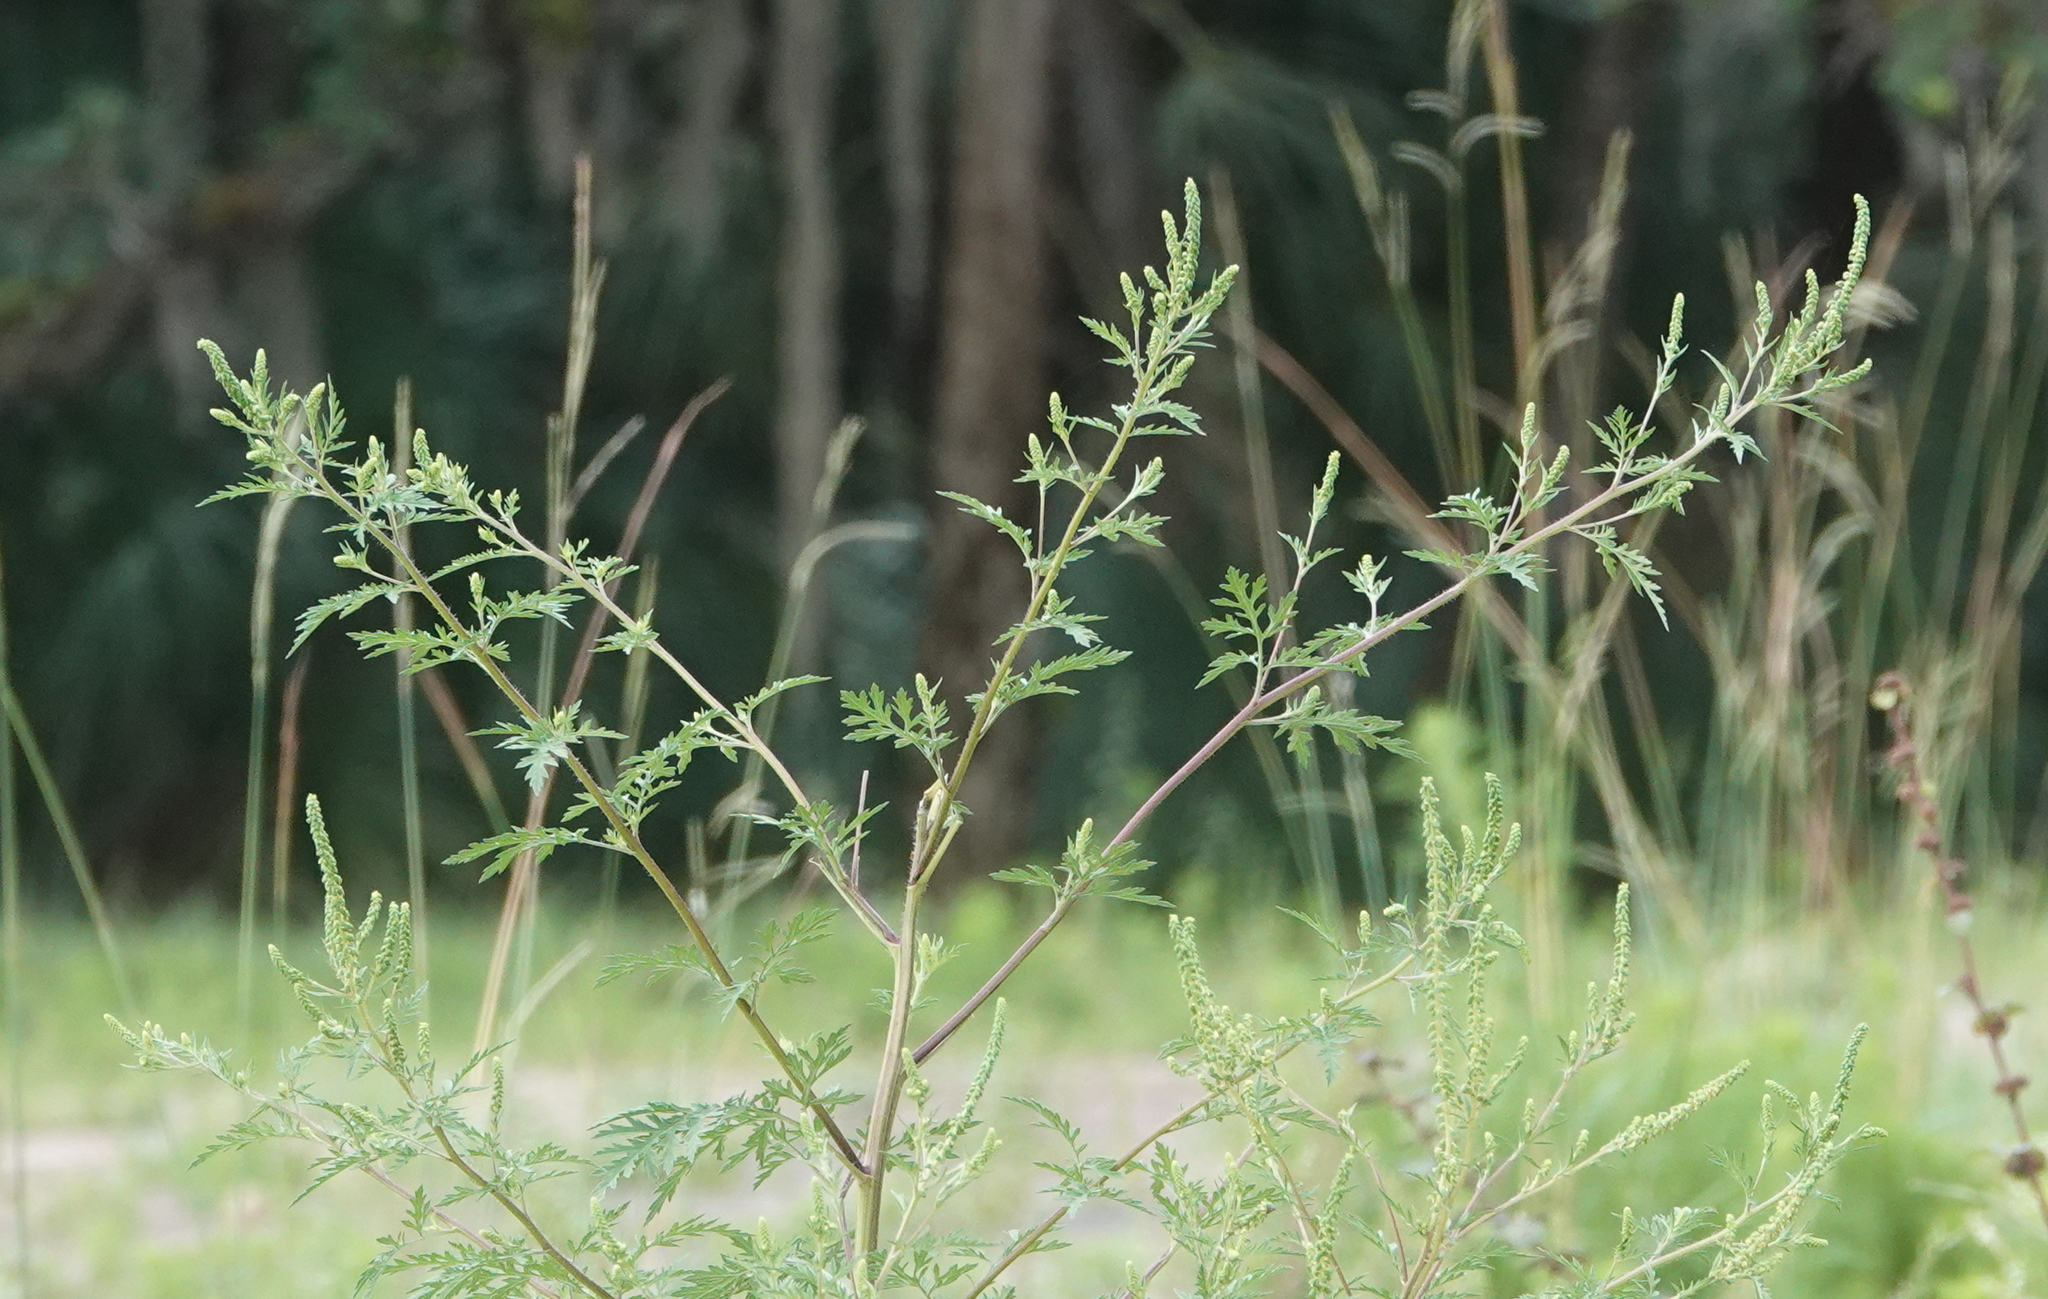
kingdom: Plantae
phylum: Tracheophyta
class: Magnoliopsida
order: Asterales
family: Asteraceae
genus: Ambrosia
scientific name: Ambrosia artemisiifolia
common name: Annual ragweed
